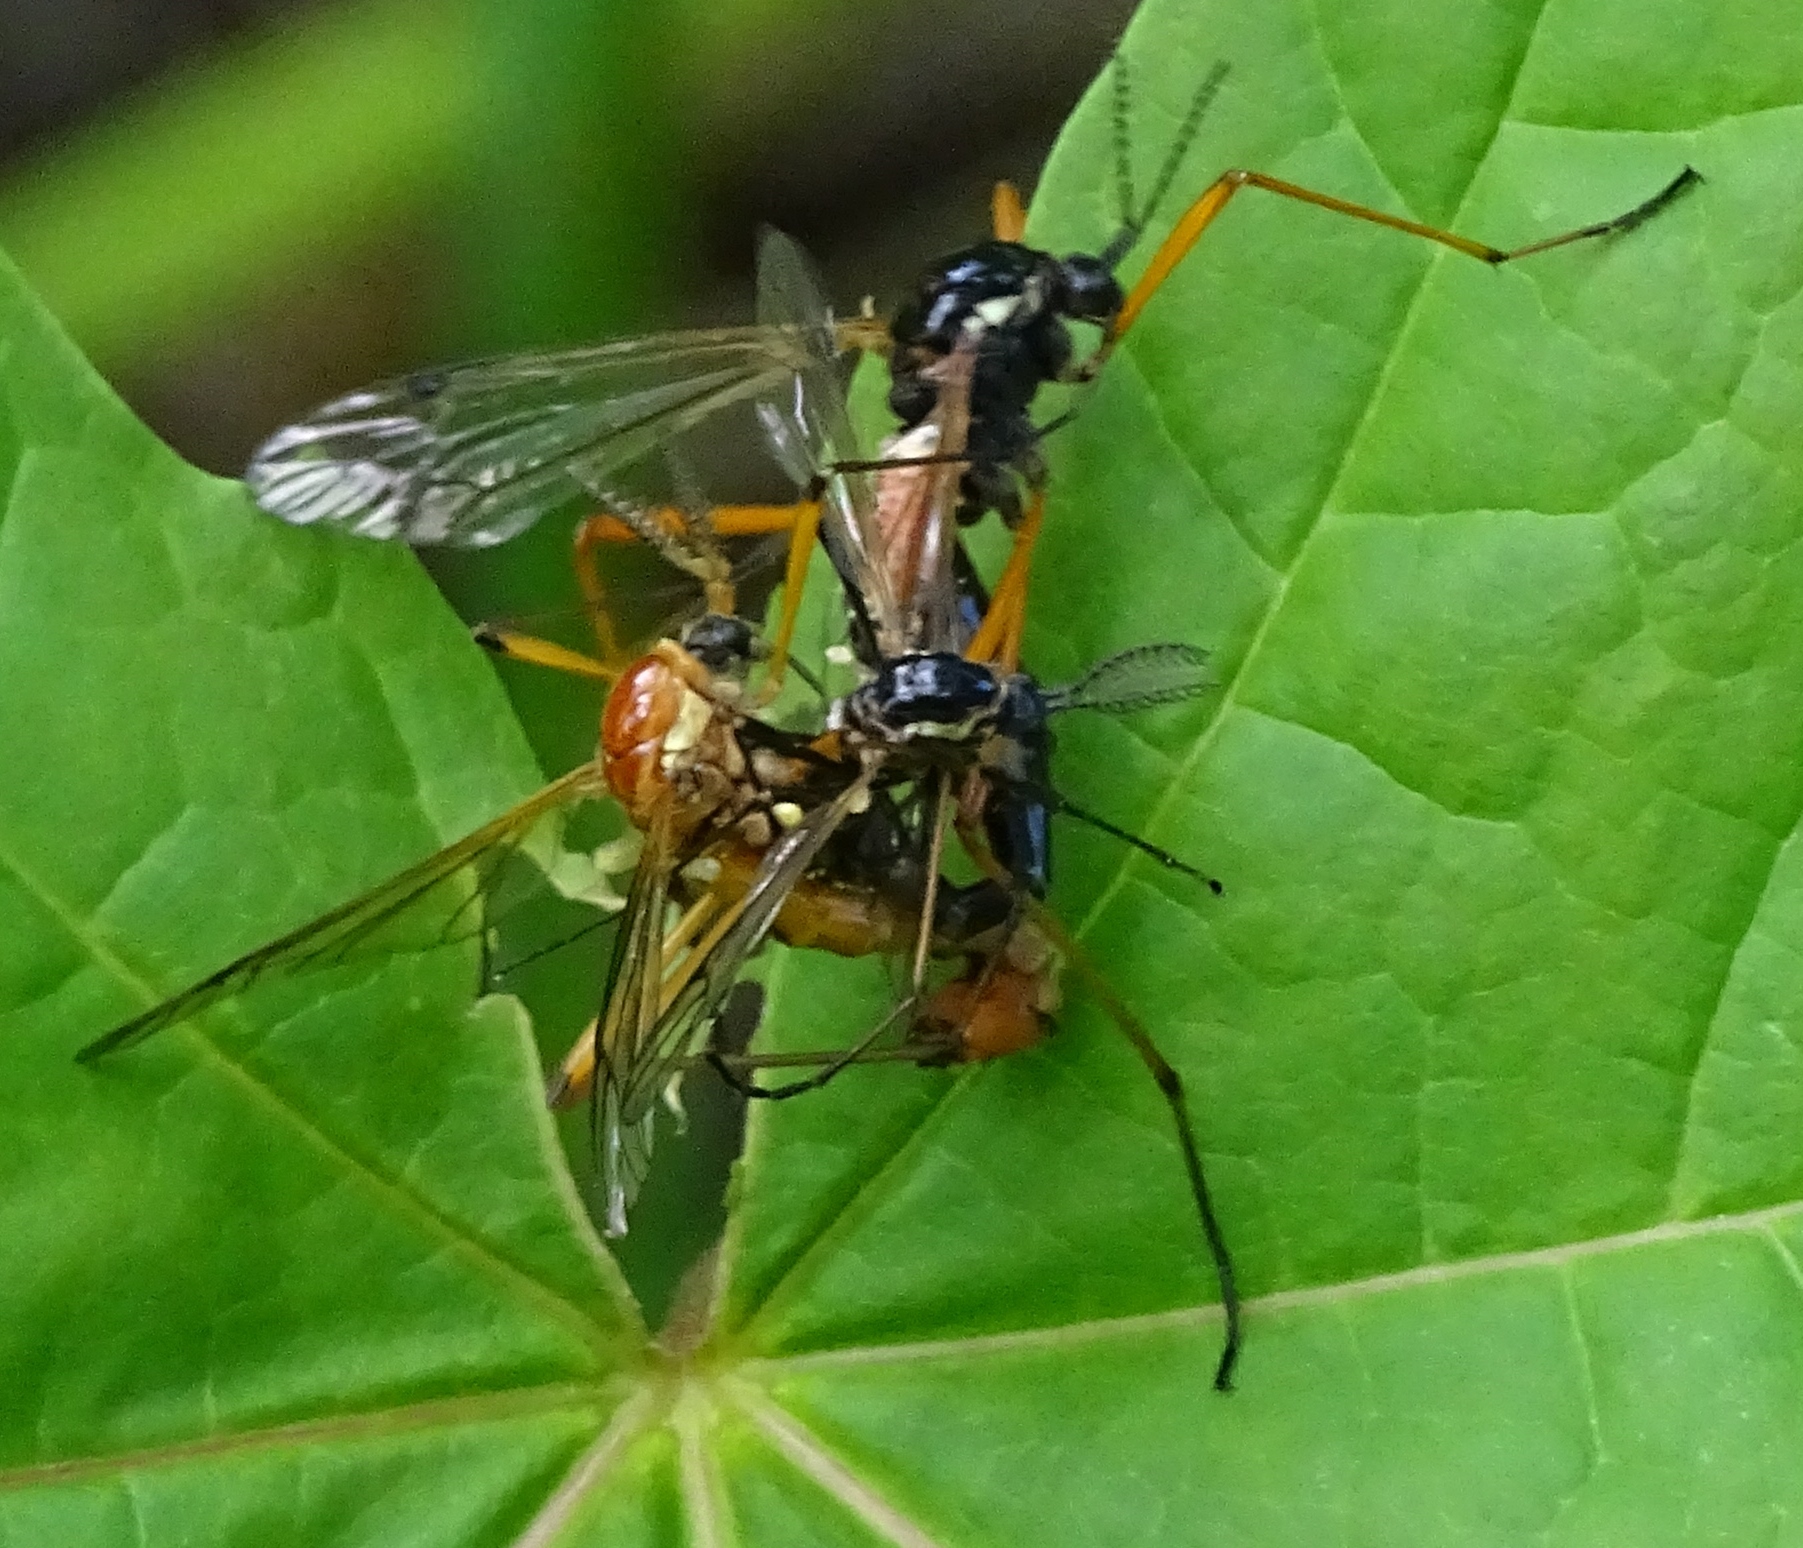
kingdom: Animalia
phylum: Arthropoda
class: Insecta
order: Diptera
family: Tipulidae
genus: Tanyptera
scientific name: Tanyptera dorsalis
